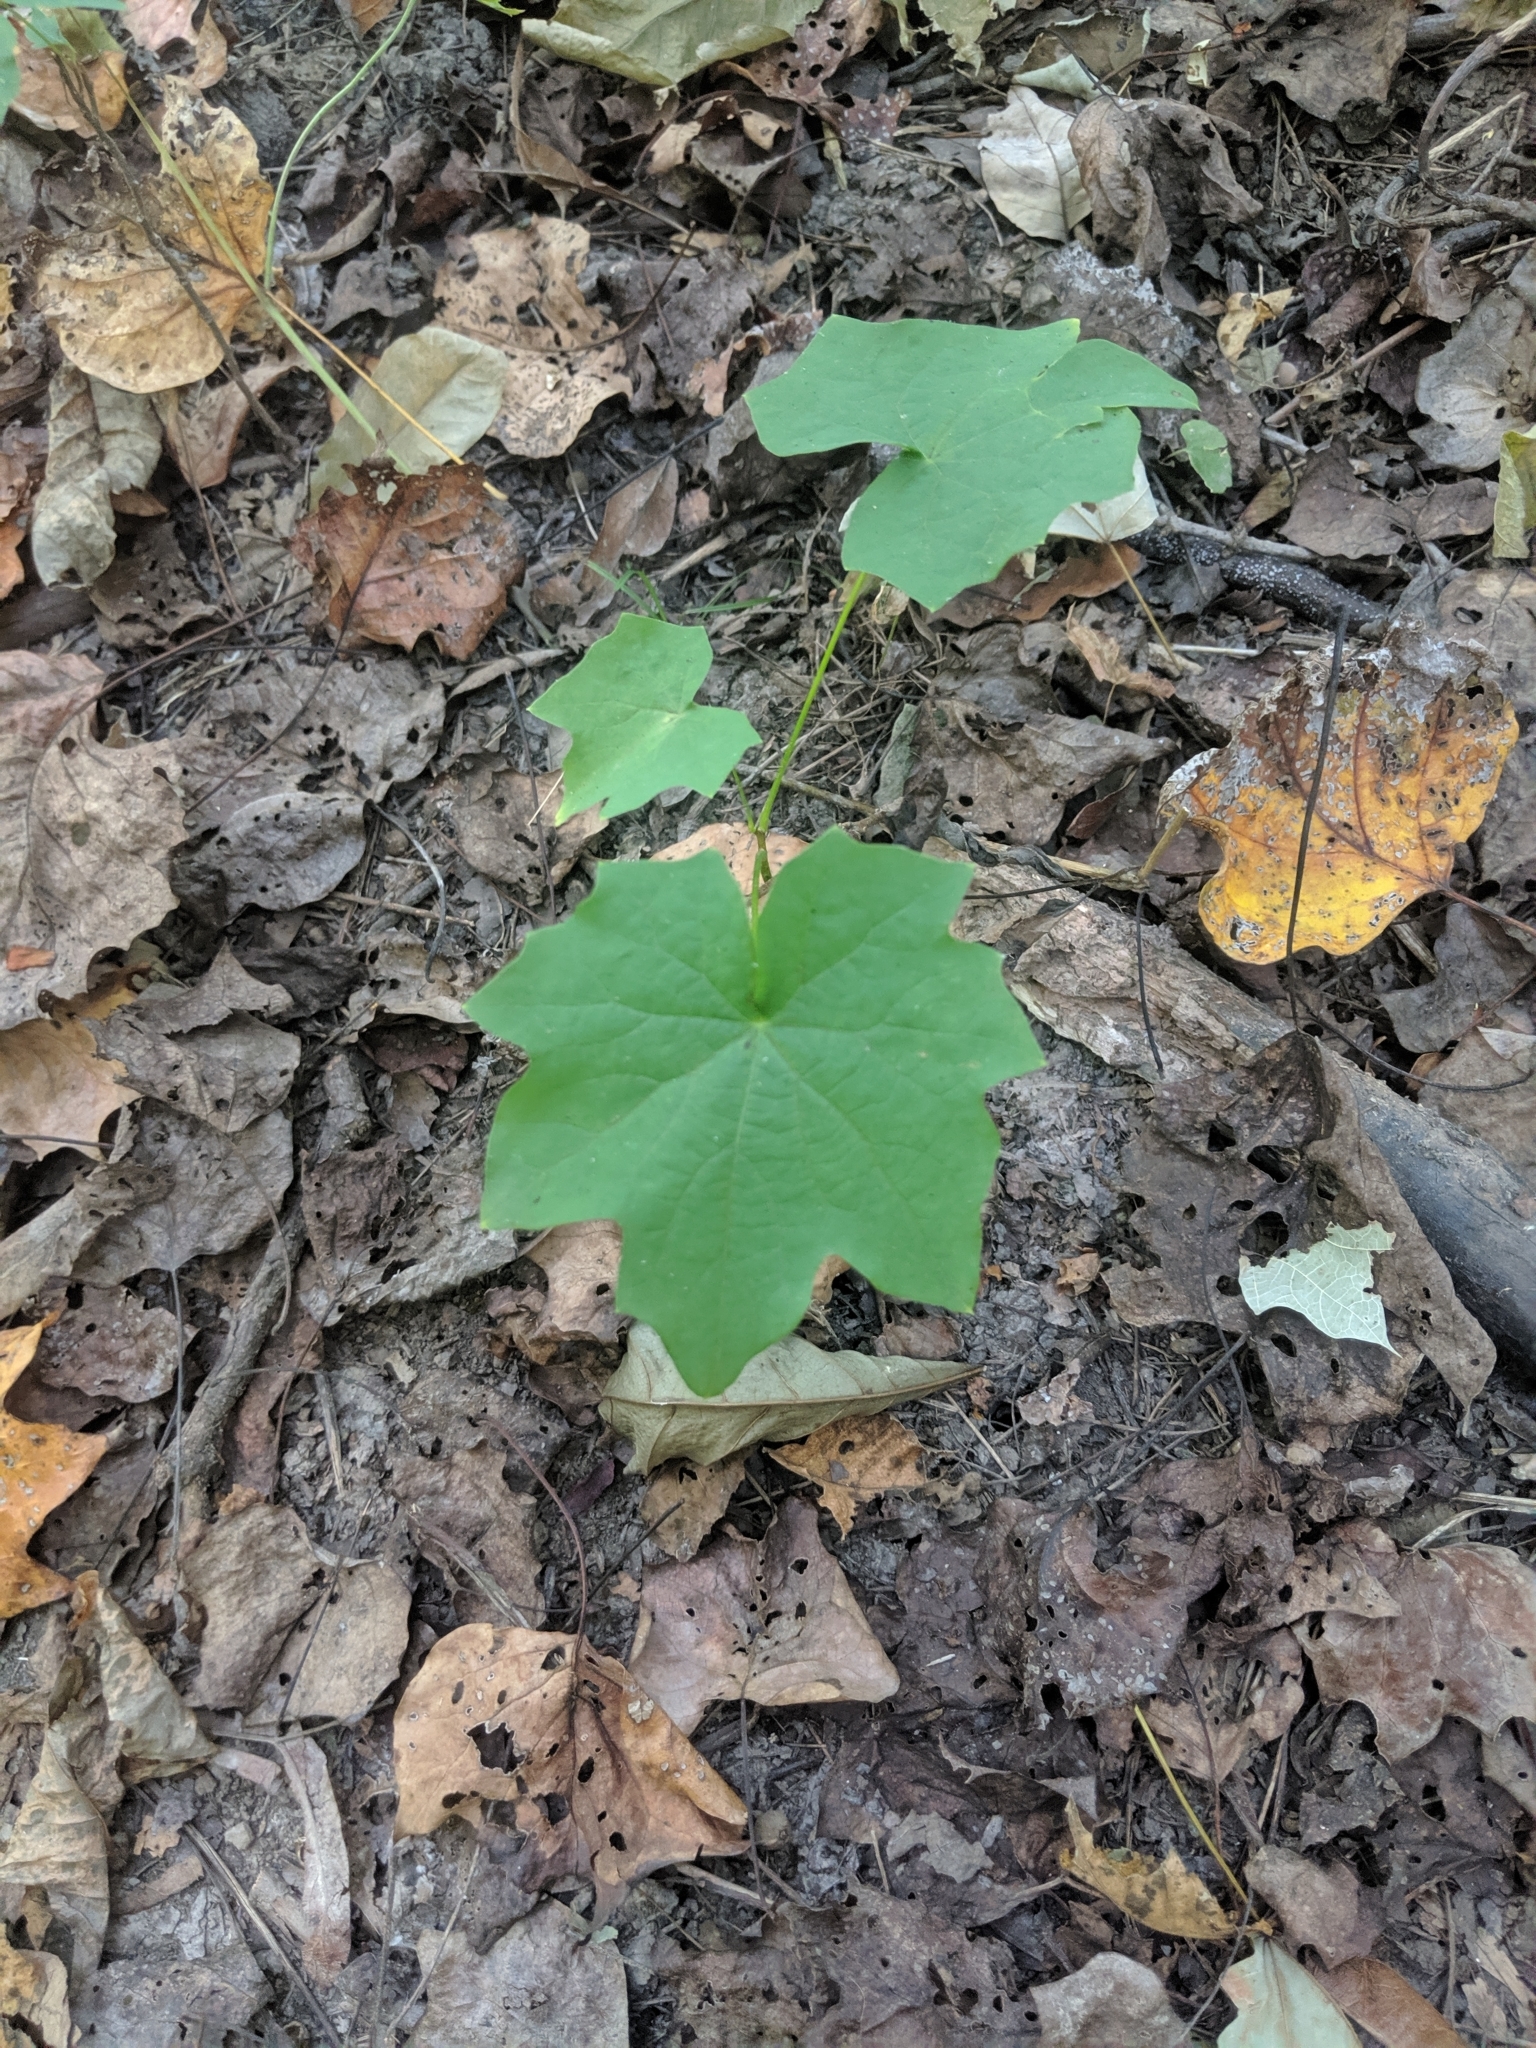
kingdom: Plantae
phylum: Tracheophyta
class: Magnoliopsida
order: Ranunculales
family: Menispermaceae
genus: Menispermum
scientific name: Menispermum canadense
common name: Moonseed
